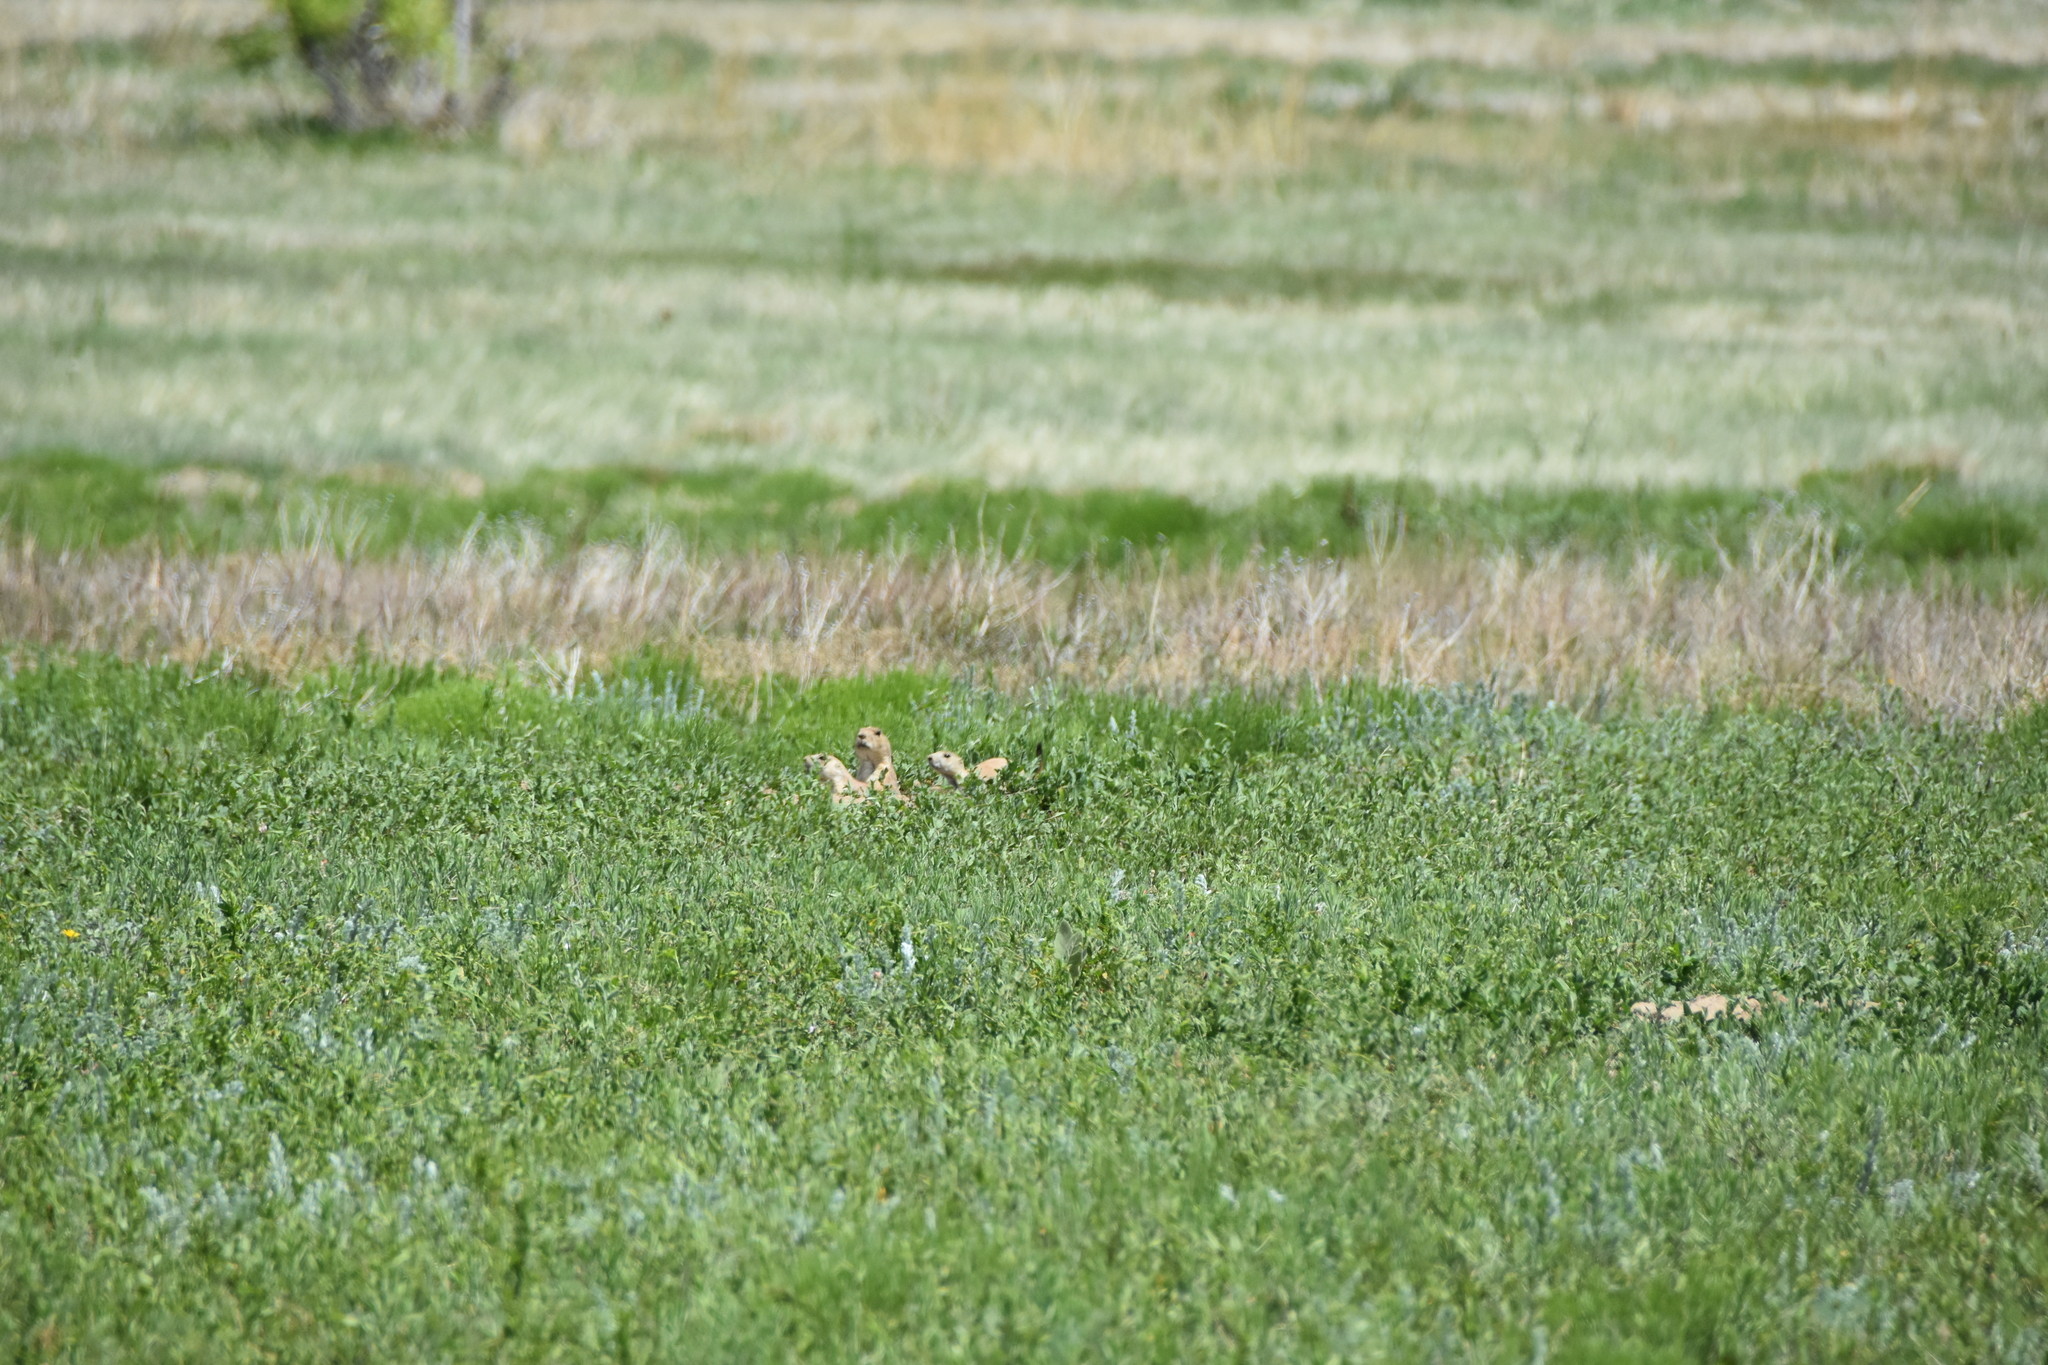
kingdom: Animalia
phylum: Chordata
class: Mammalia
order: Rodentia
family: Sciuridae
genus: Cynomys
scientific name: Cynomys ludovicianus
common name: Black-tailed prairie dog
